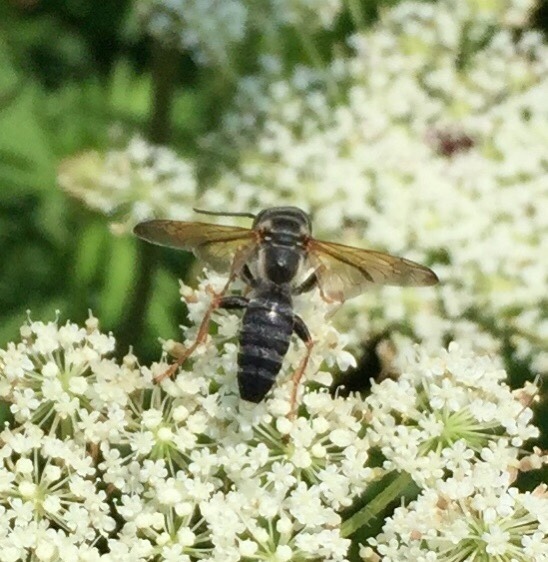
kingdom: Animalia
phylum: Arthropoda
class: Insecta
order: Hymenoptera
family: Crabronidae
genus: Tachytes
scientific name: Tachytes
